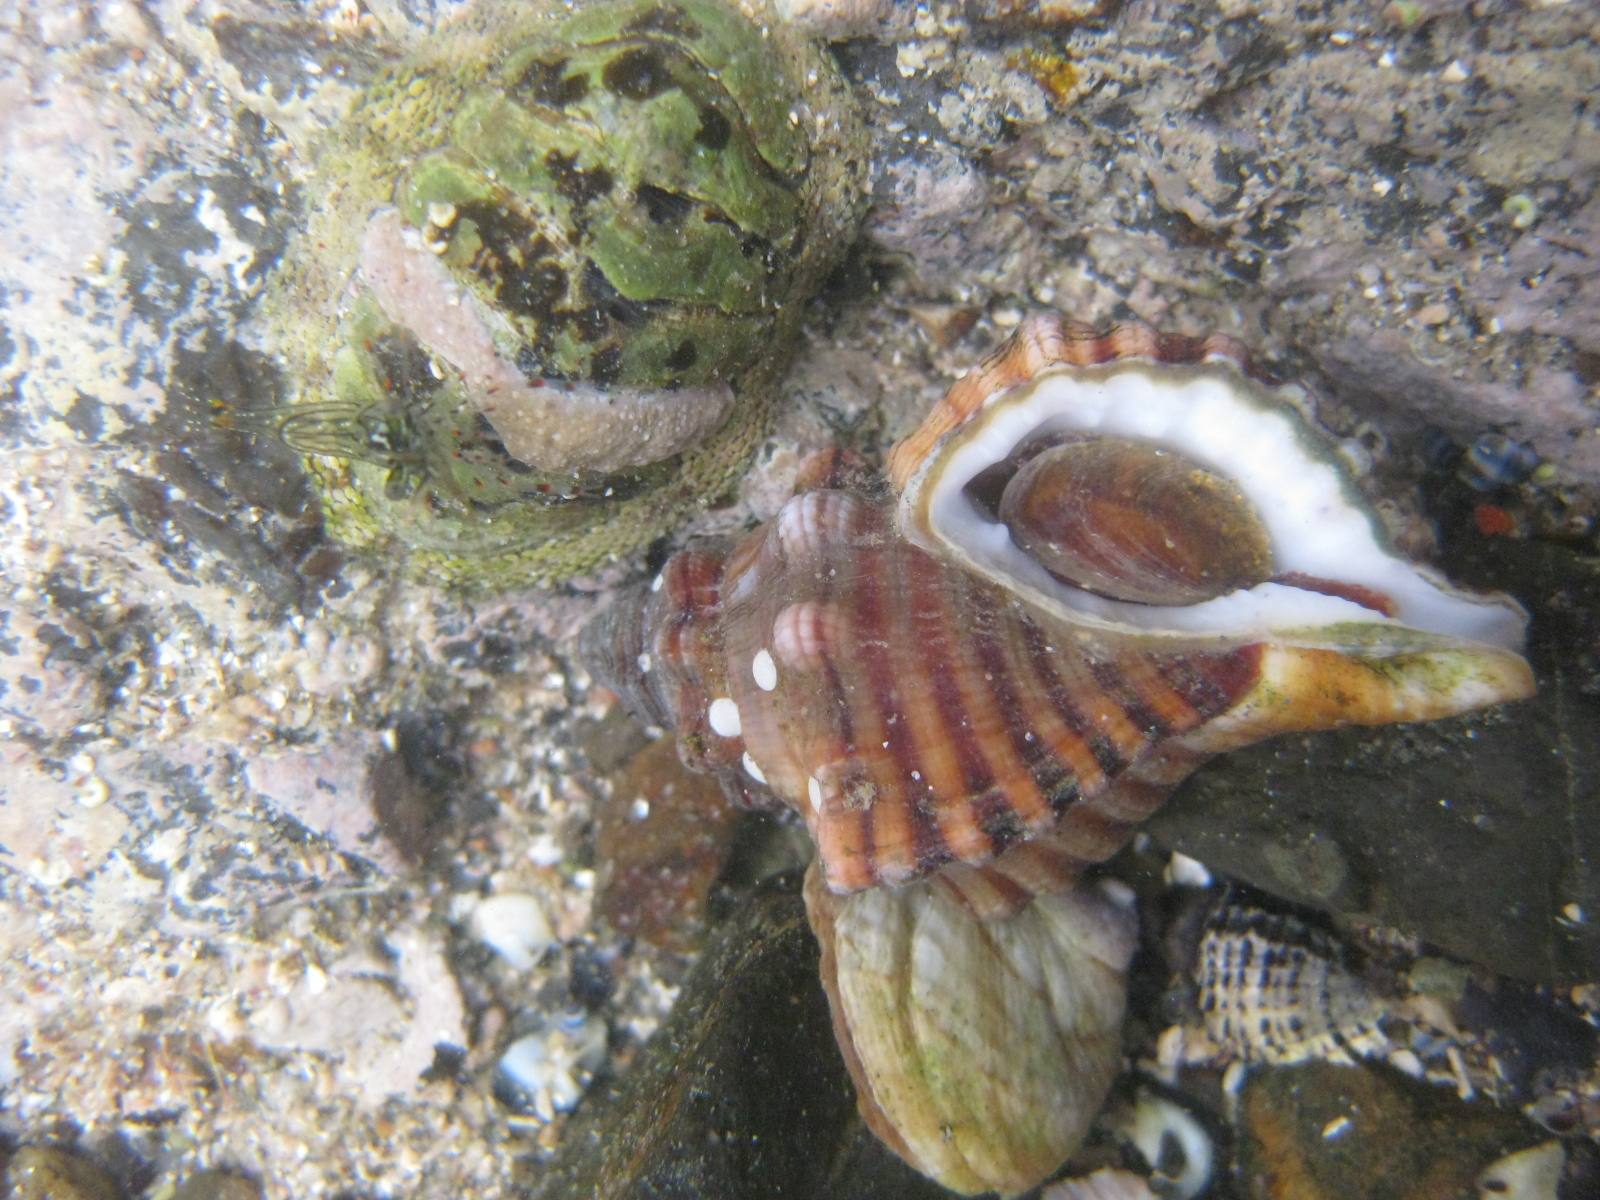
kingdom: Animalia
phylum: Mollusca
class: Polyplacophora
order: Chitonida
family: Chitonidae
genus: Sypharochiton
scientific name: Sypharochiton pelliserpentis
